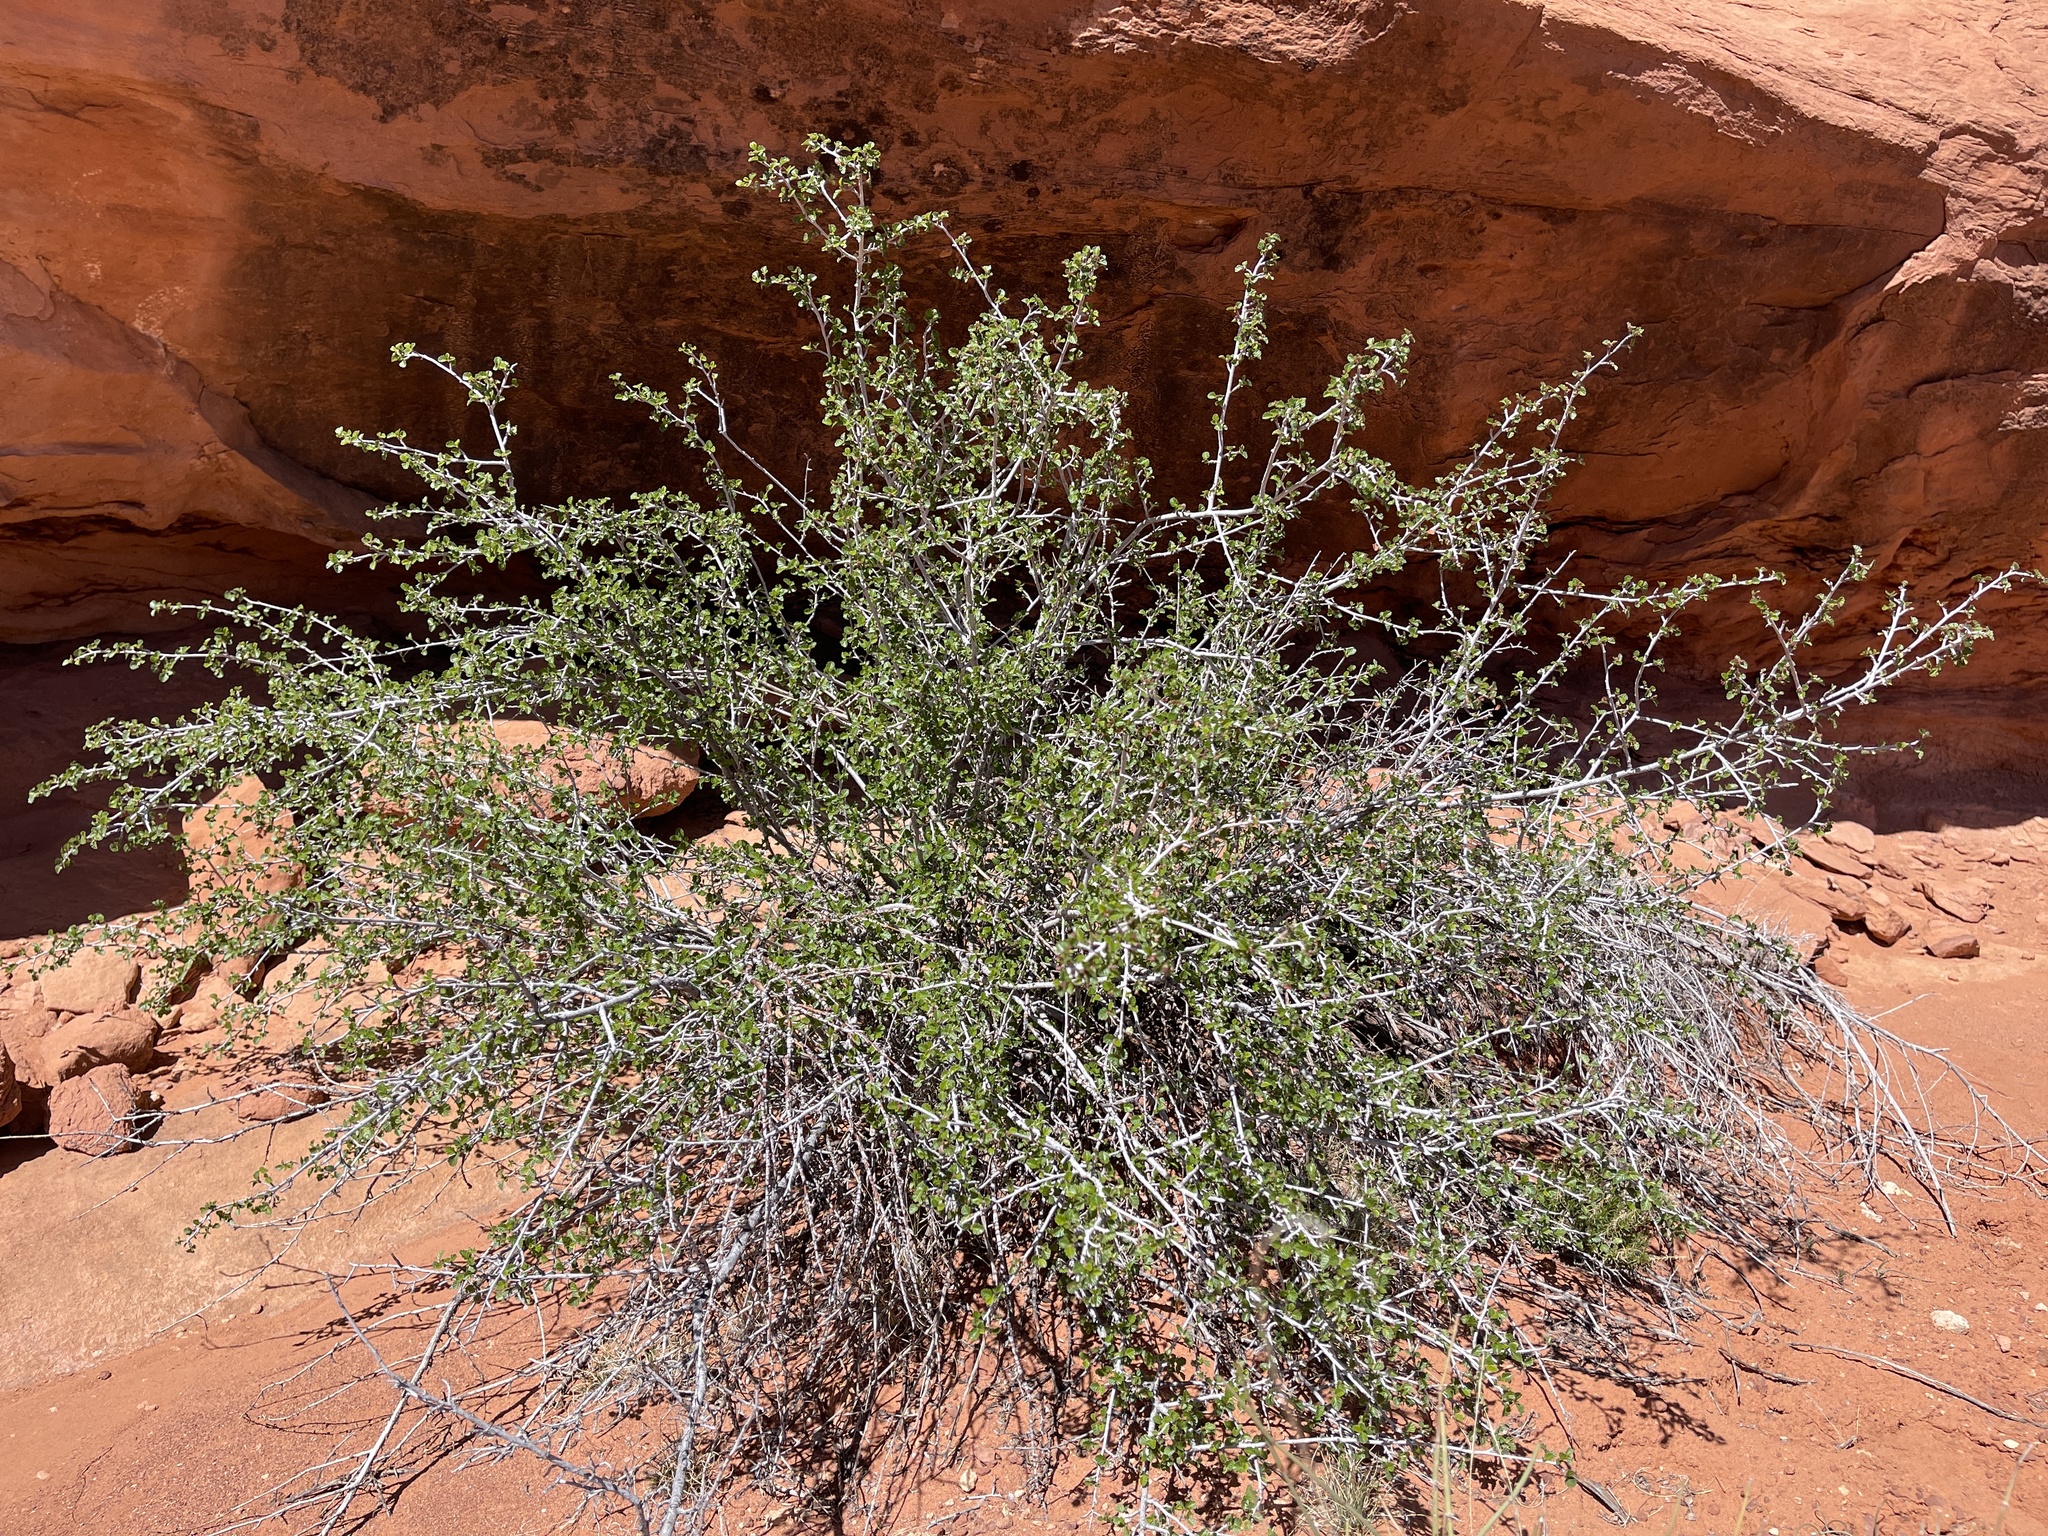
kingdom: Plantae
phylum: Tracheophyta
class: Magnoliopsida
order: Rosales
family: Rosaceae
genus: Cercocarpus
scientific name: Cercocarpus montanus
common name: Alder-leaf cercocarpus
